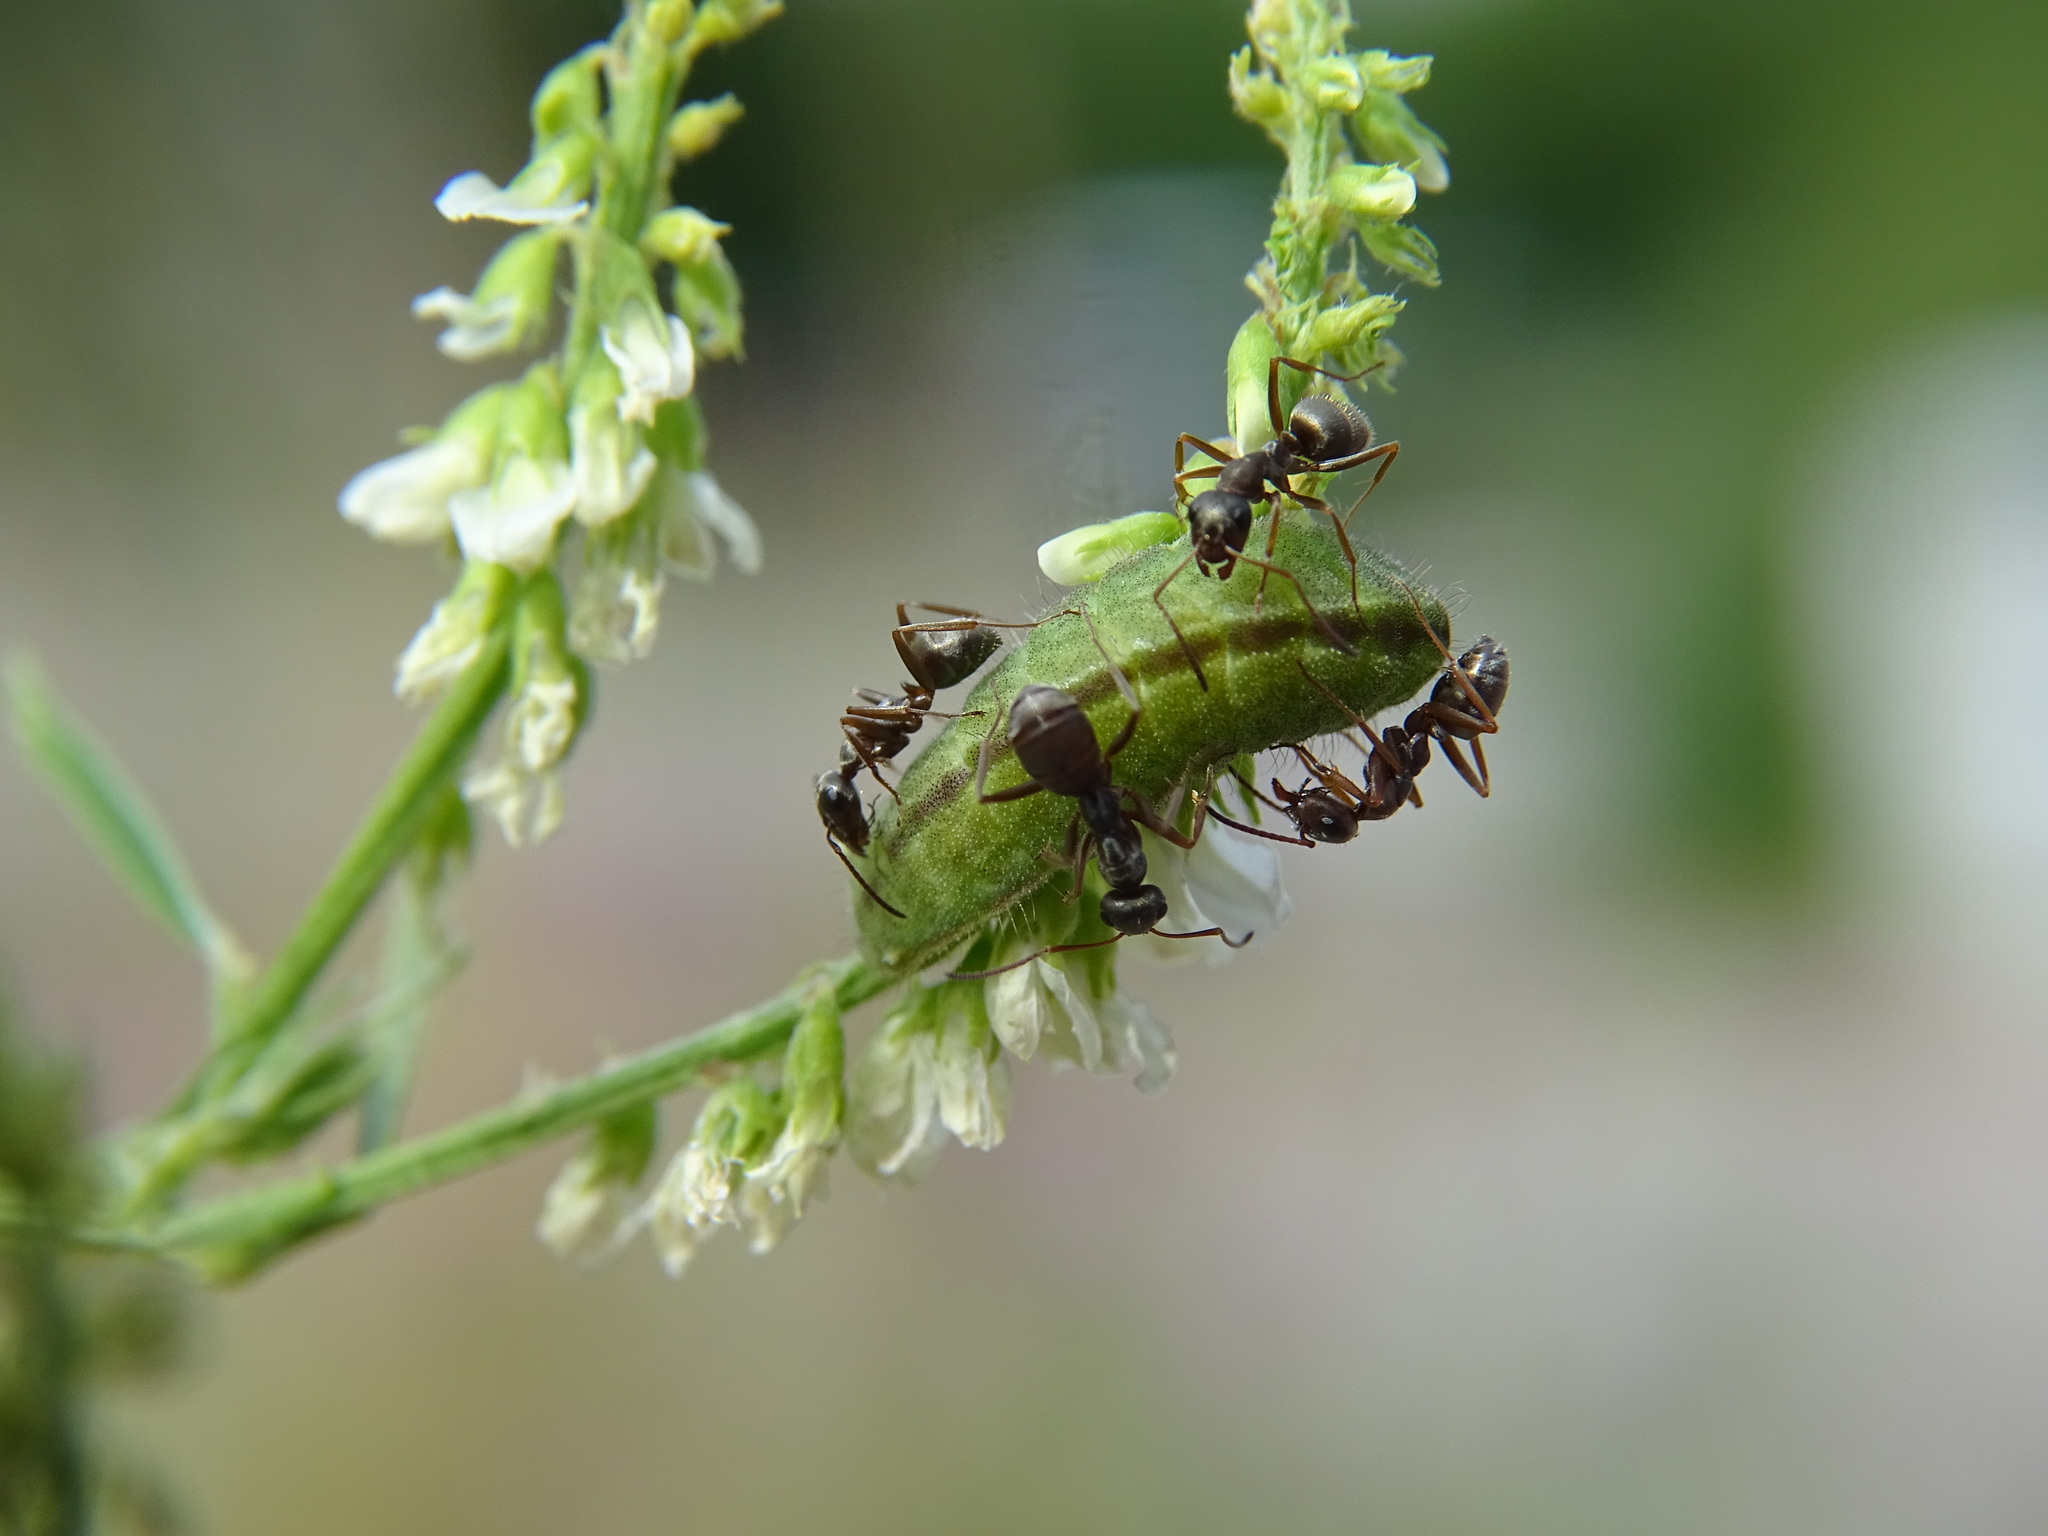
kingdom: Animalia
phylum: Arthropoda
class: Insecta
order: Lepidoptera
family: Lycaenidae
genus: Lycaeides
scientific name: Lycaeides idas
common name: Northern blue
